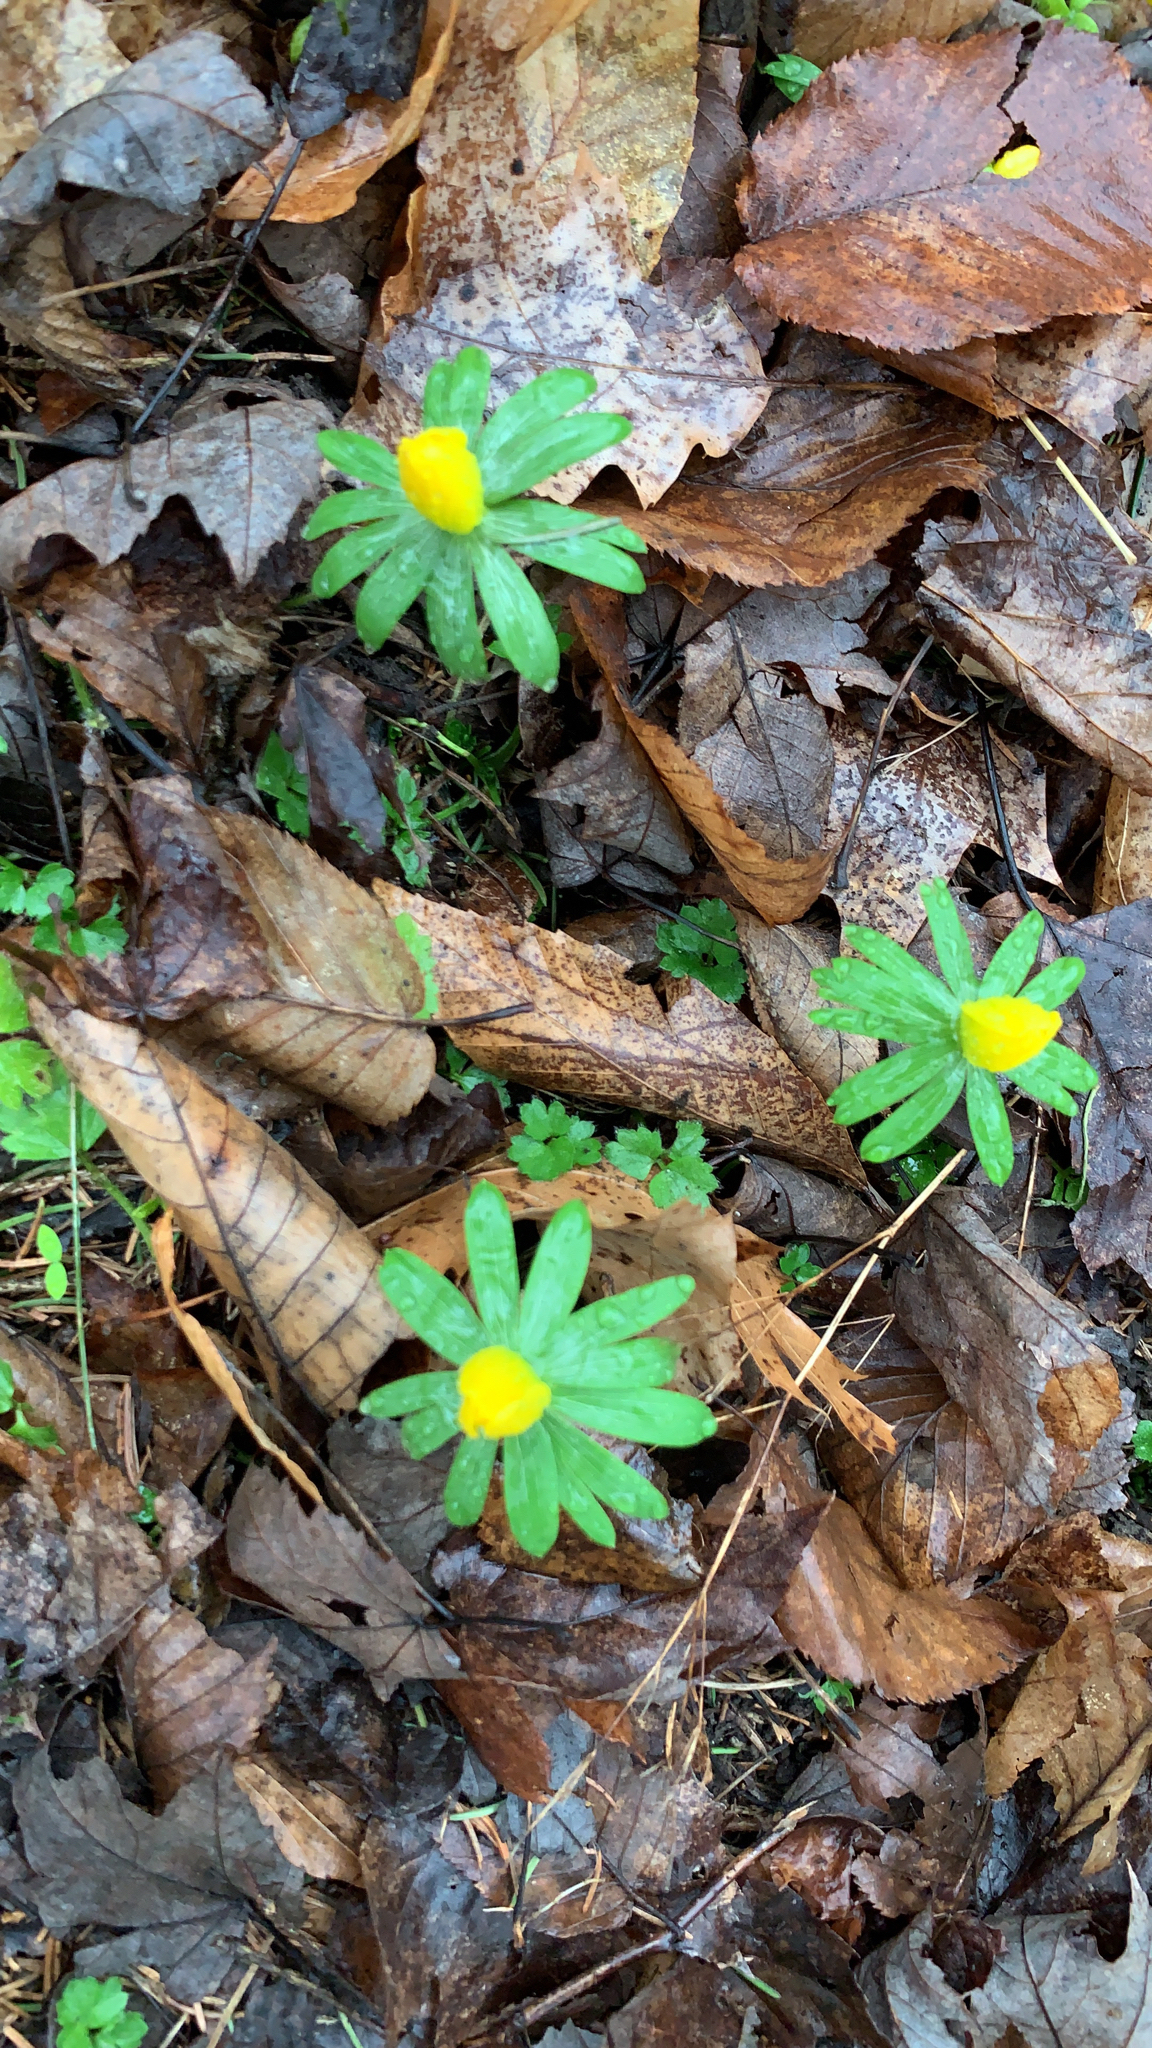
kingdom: Plantae
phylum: Tracheophyta
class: Magnoliopsida
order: Ranunculales
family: Ranunculaceae
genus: Eranthis
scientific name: Eranthis hyemalis
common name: Winter aconite
